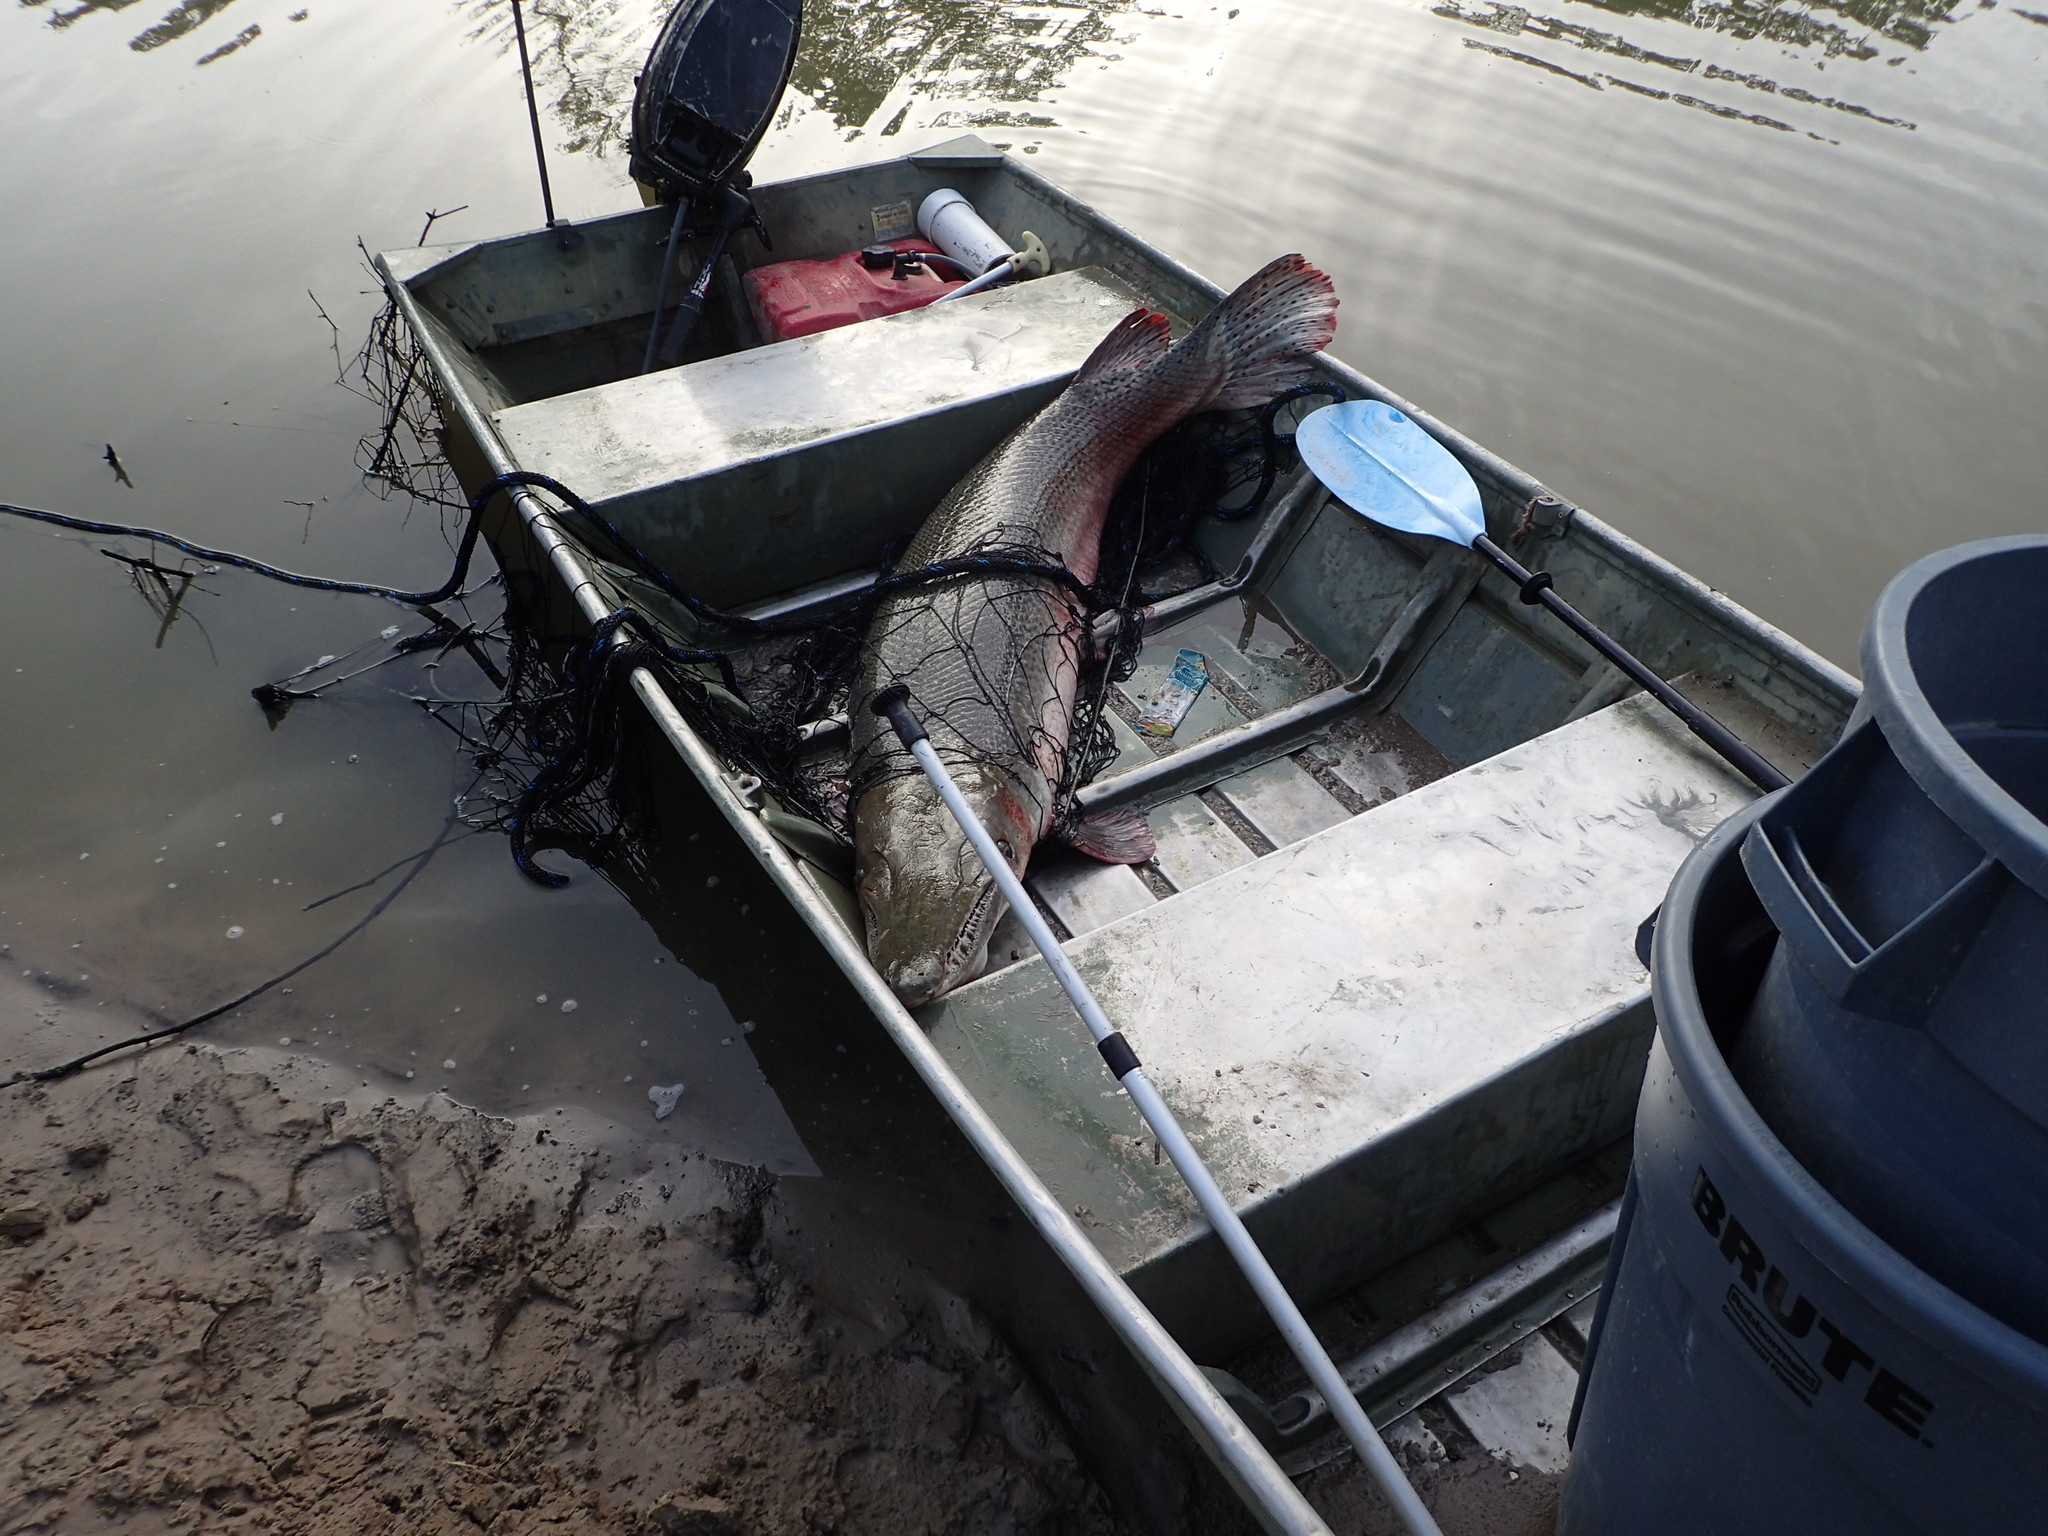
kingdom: Animalia
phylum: Chordata
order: Lepisosteiformes
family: Lepisosteidae
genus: Atractosteus
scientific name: Atractosteus spatula
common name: Alligator gar
